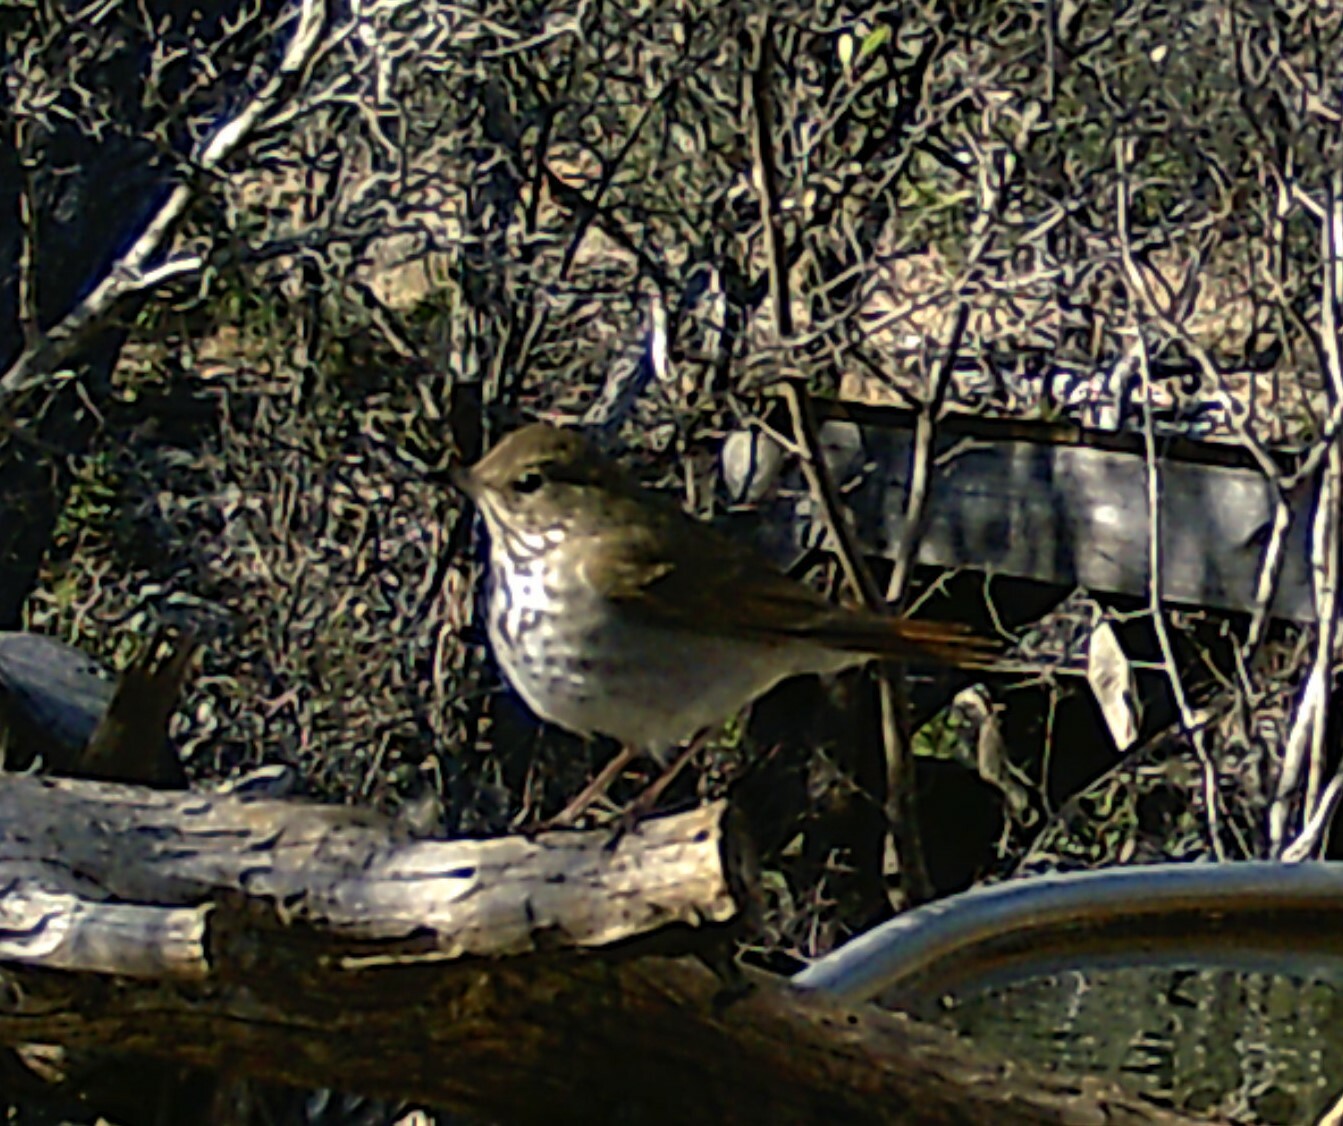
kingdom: Animalia
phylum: Chordata
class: Aves
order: Passeriformes
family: Turdidae
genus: Catharus
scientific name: Catharus guttatus
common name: Hermit thrush
